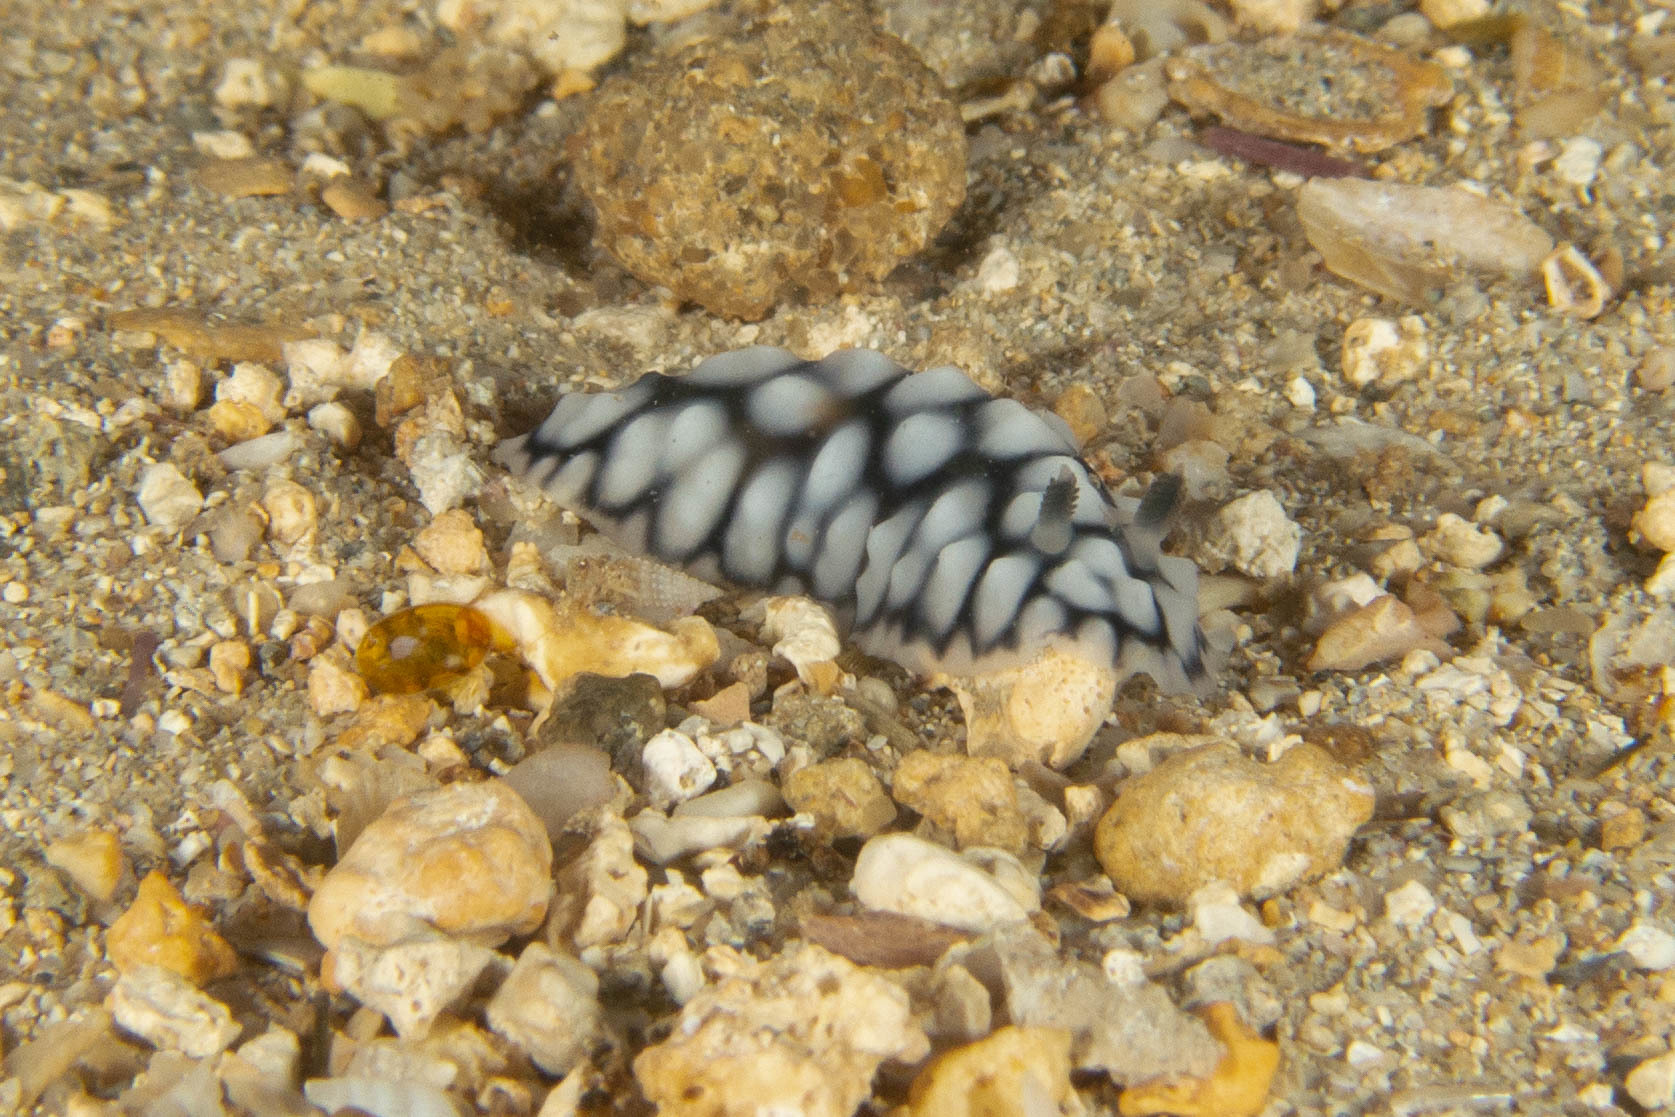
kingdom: Animalia
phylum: Mollusca
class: Gastropoda
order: Nudibranchia
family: Phyllidiidae
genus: Phyllidiella
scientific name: Phyllidiella pustulosa
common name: Pustular phyllidia
